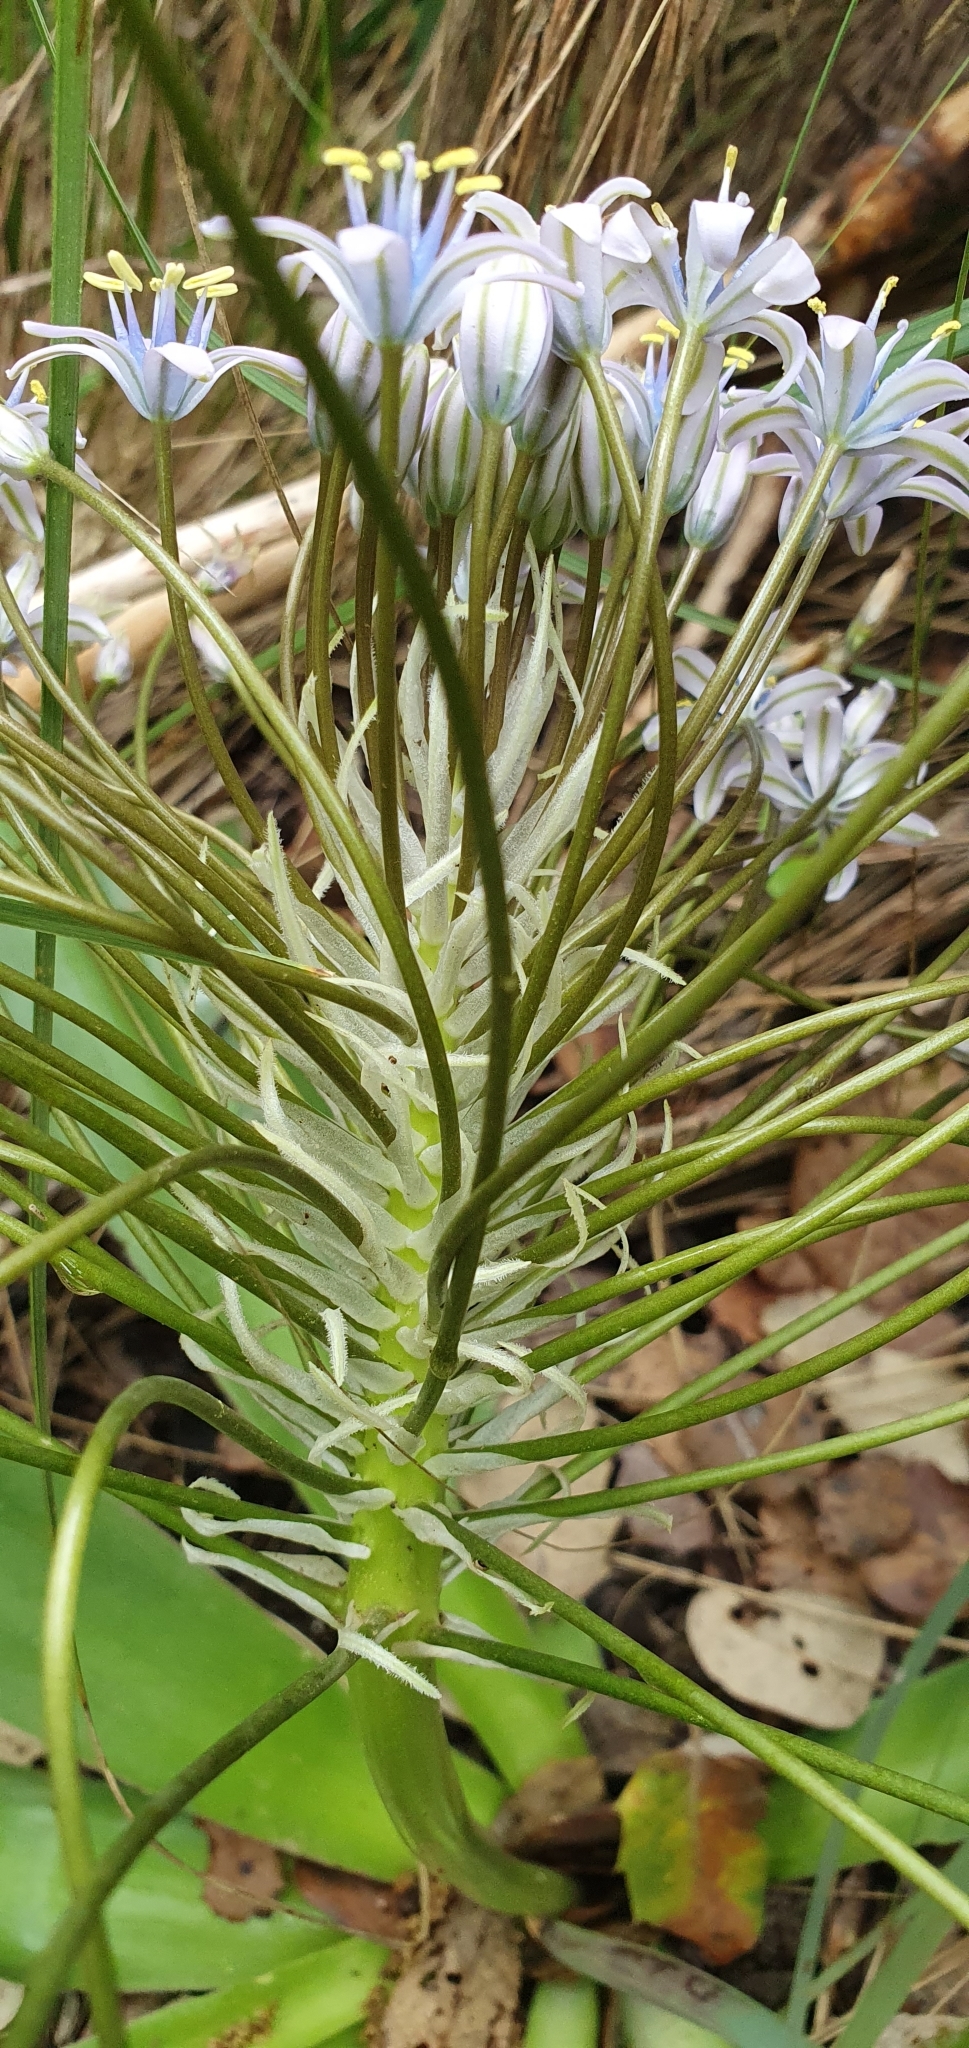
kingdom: Plantae
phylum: Tracheophyta
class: Liliopsida
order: Asparagales
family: Asparagaceae
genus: Scilla
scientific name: Scilla peruviana
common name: Portuguese squill
